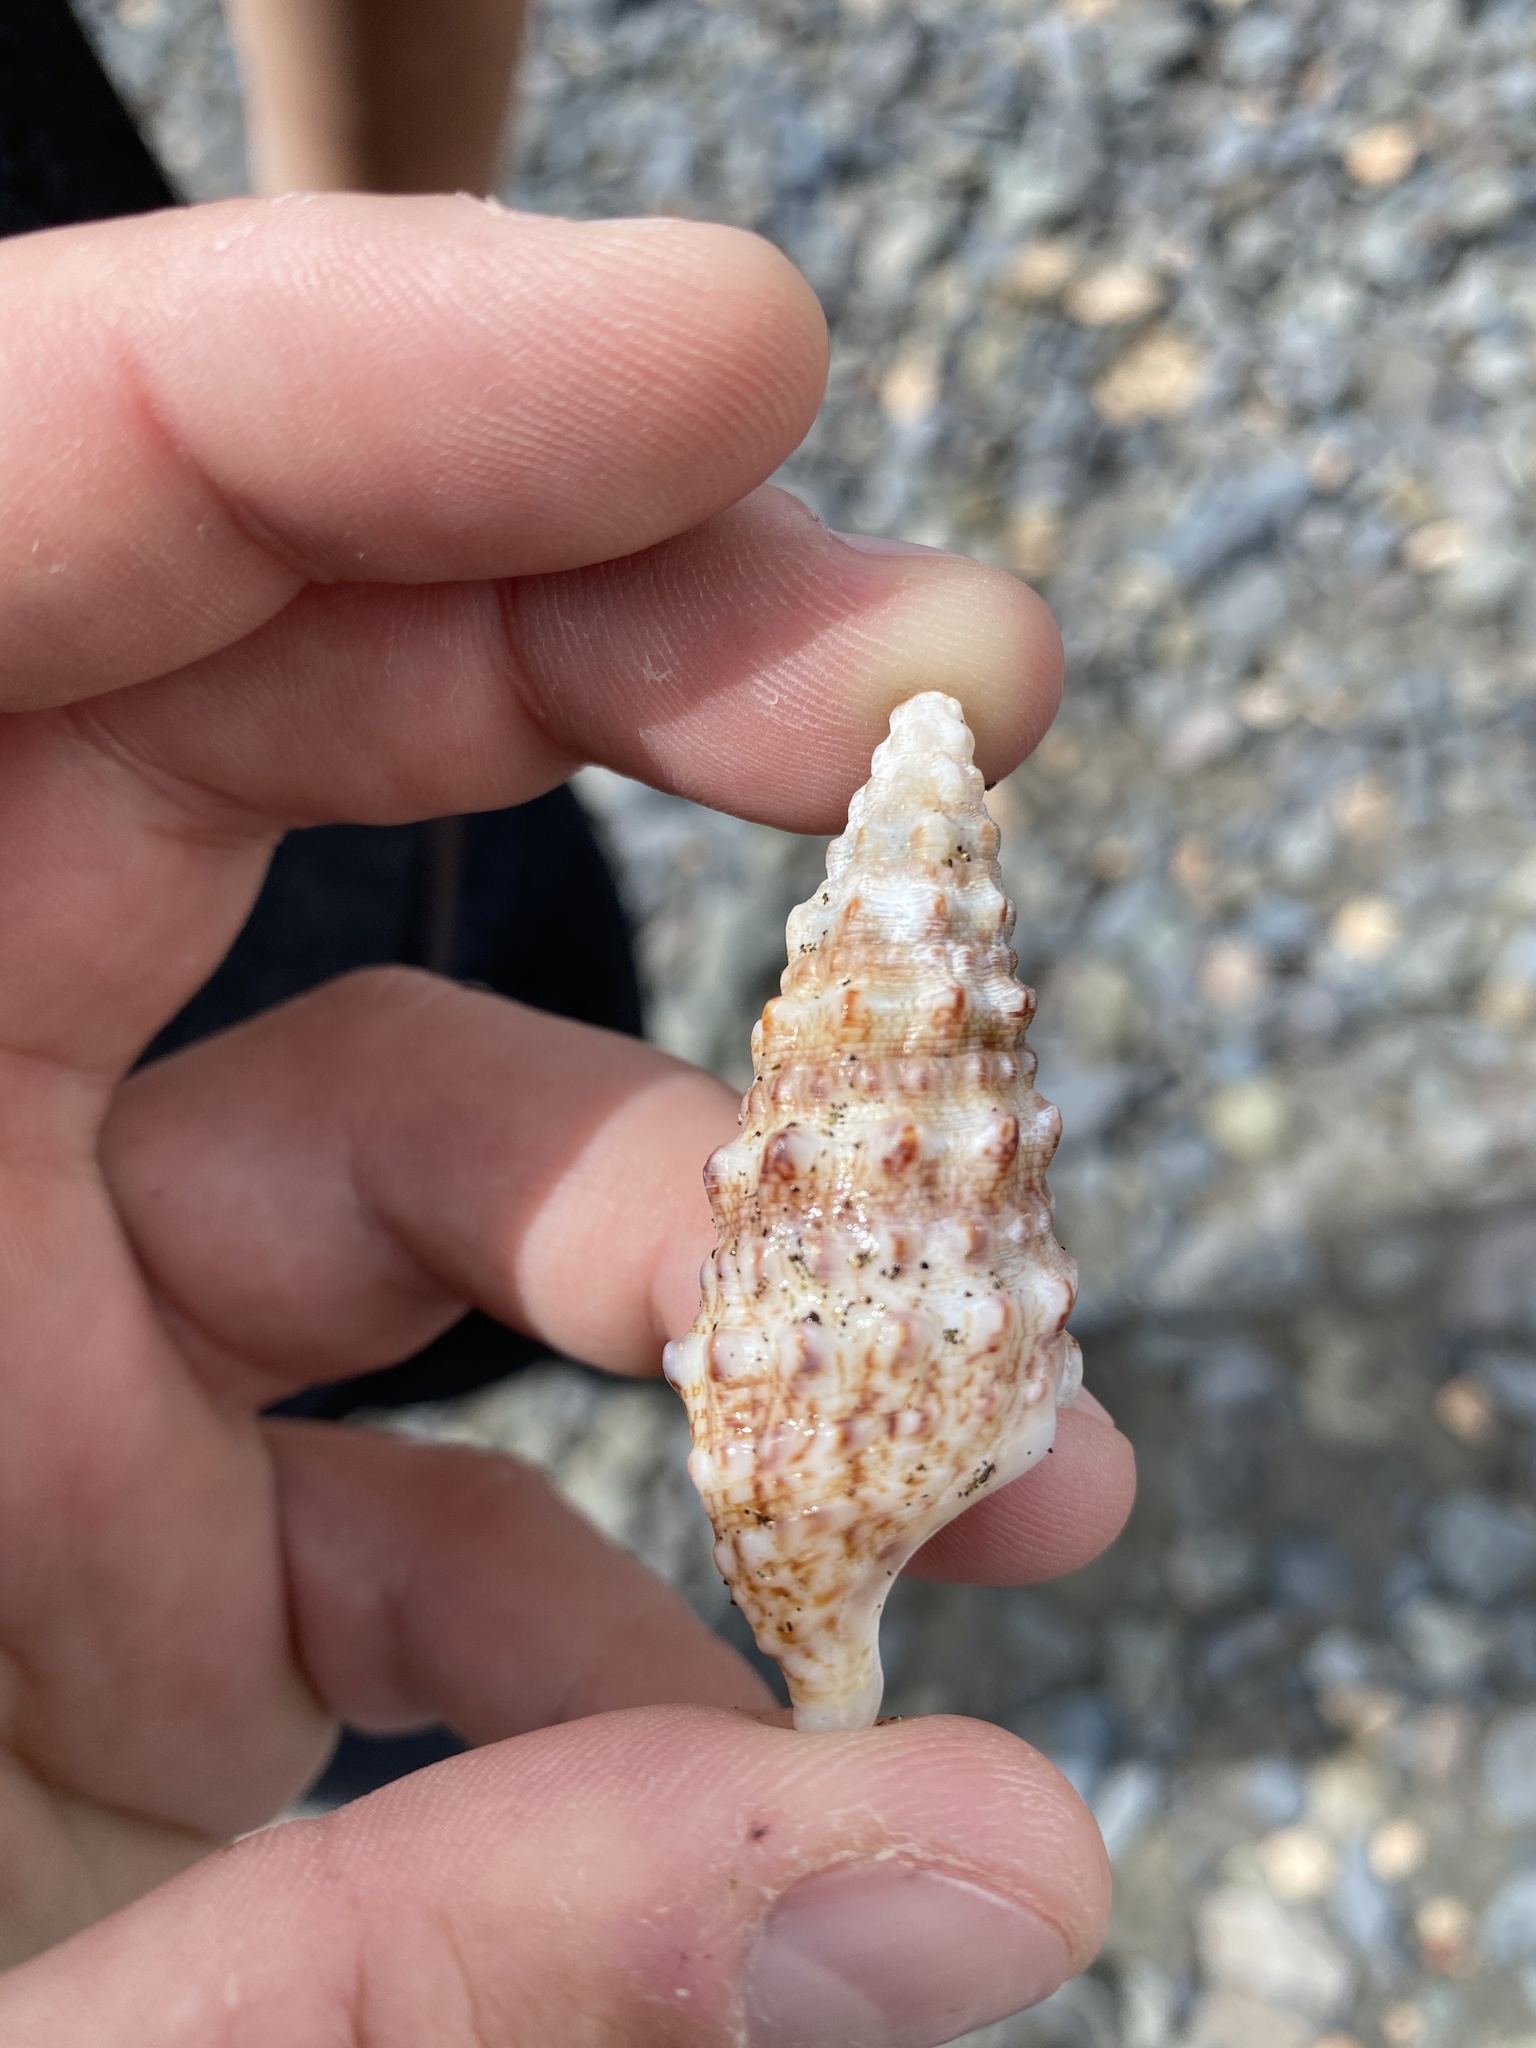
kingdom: Animalia
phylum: Mollusca
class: Gastropoda
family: Cerithiidae
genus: Cerithium
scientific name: Cerithium vulgatum
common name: European cerith
